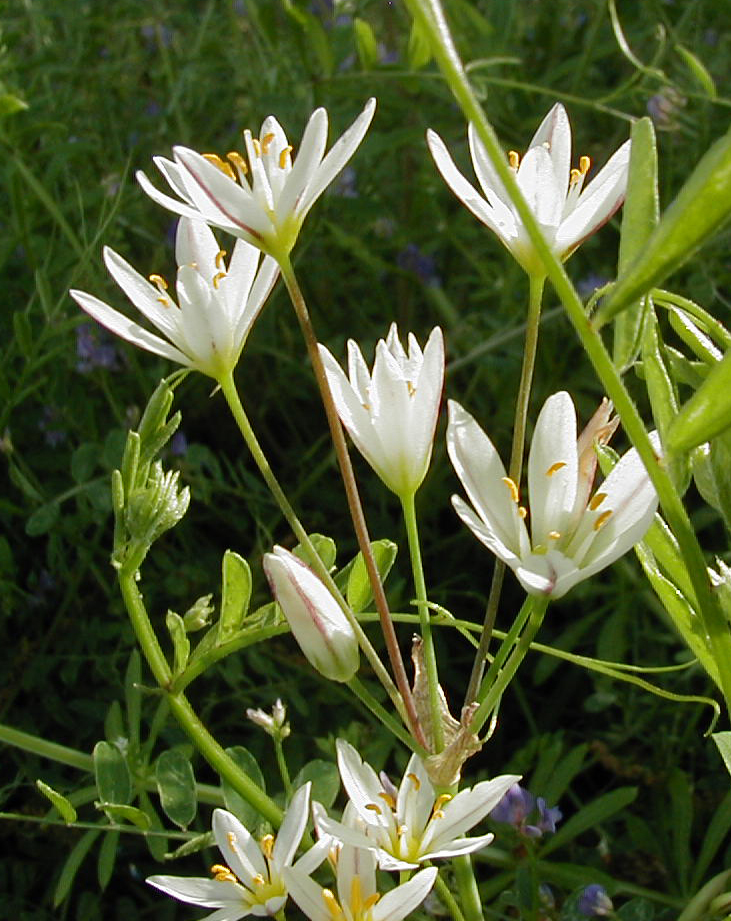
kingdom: Plantae
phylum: Tracheophyta
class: Liliopsida
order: Asparagales
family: Amaryllidaceae
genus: Nothoscordum
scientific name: Nothoscordum bivalve
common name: Crow-poison
